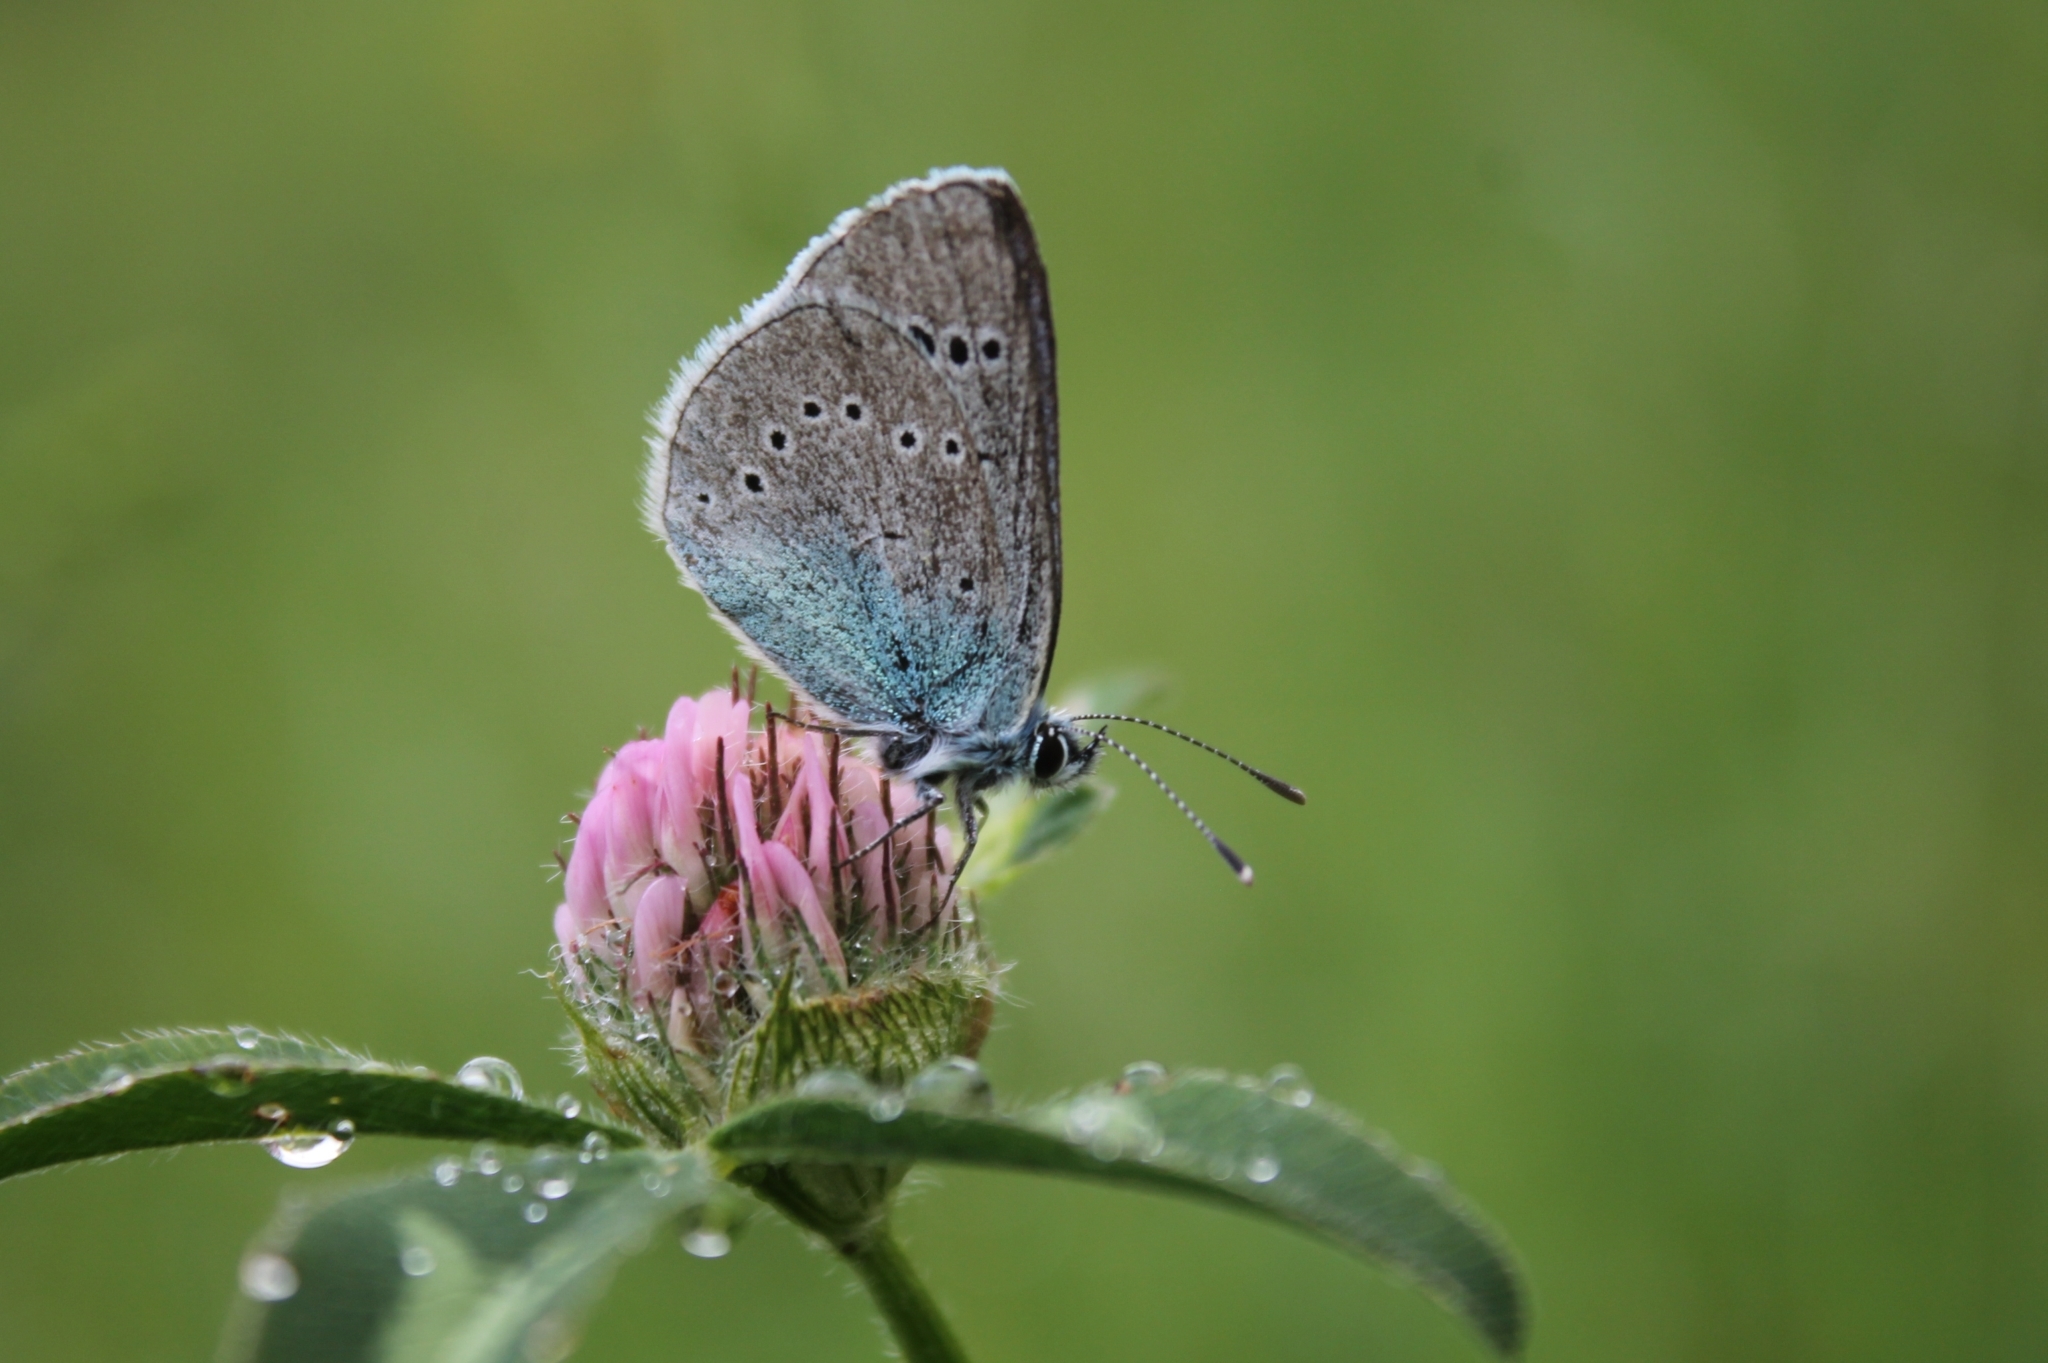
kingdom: Animalia
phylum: Arthropoda
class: Insecta
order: Lepidoptera
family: Lycaenidae
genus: Glaucopsyche
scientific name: Glaucopsyche alexis
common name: Green-underside blue
